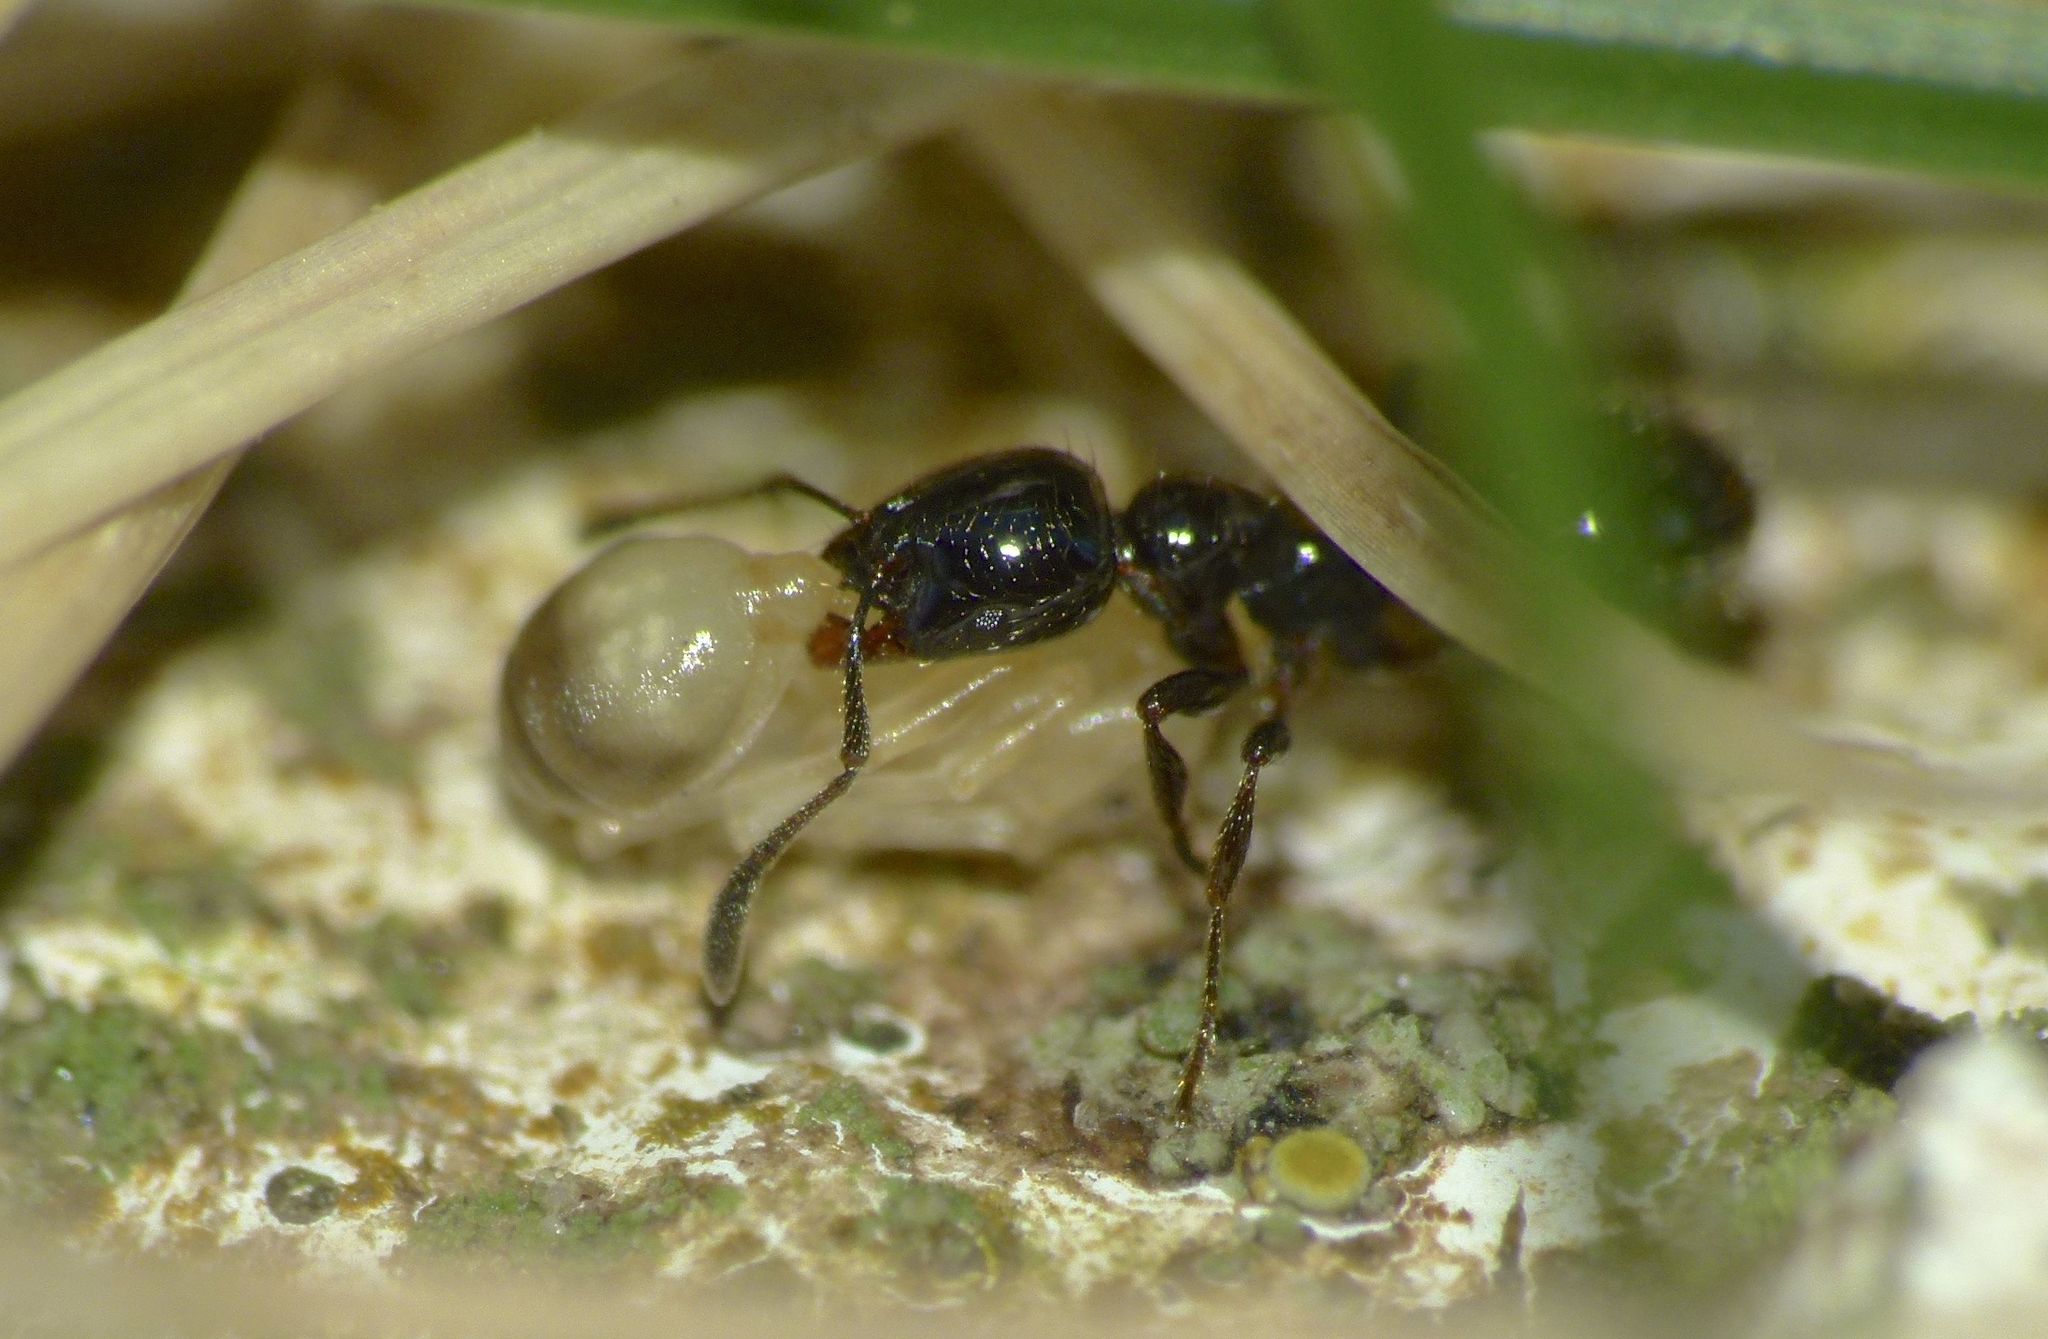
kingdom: Animalia
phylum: Arthropoda
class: Insecta
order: Hymenoptera
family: Formicidae
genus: Monomorium
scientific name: Monomorium antarcticum
